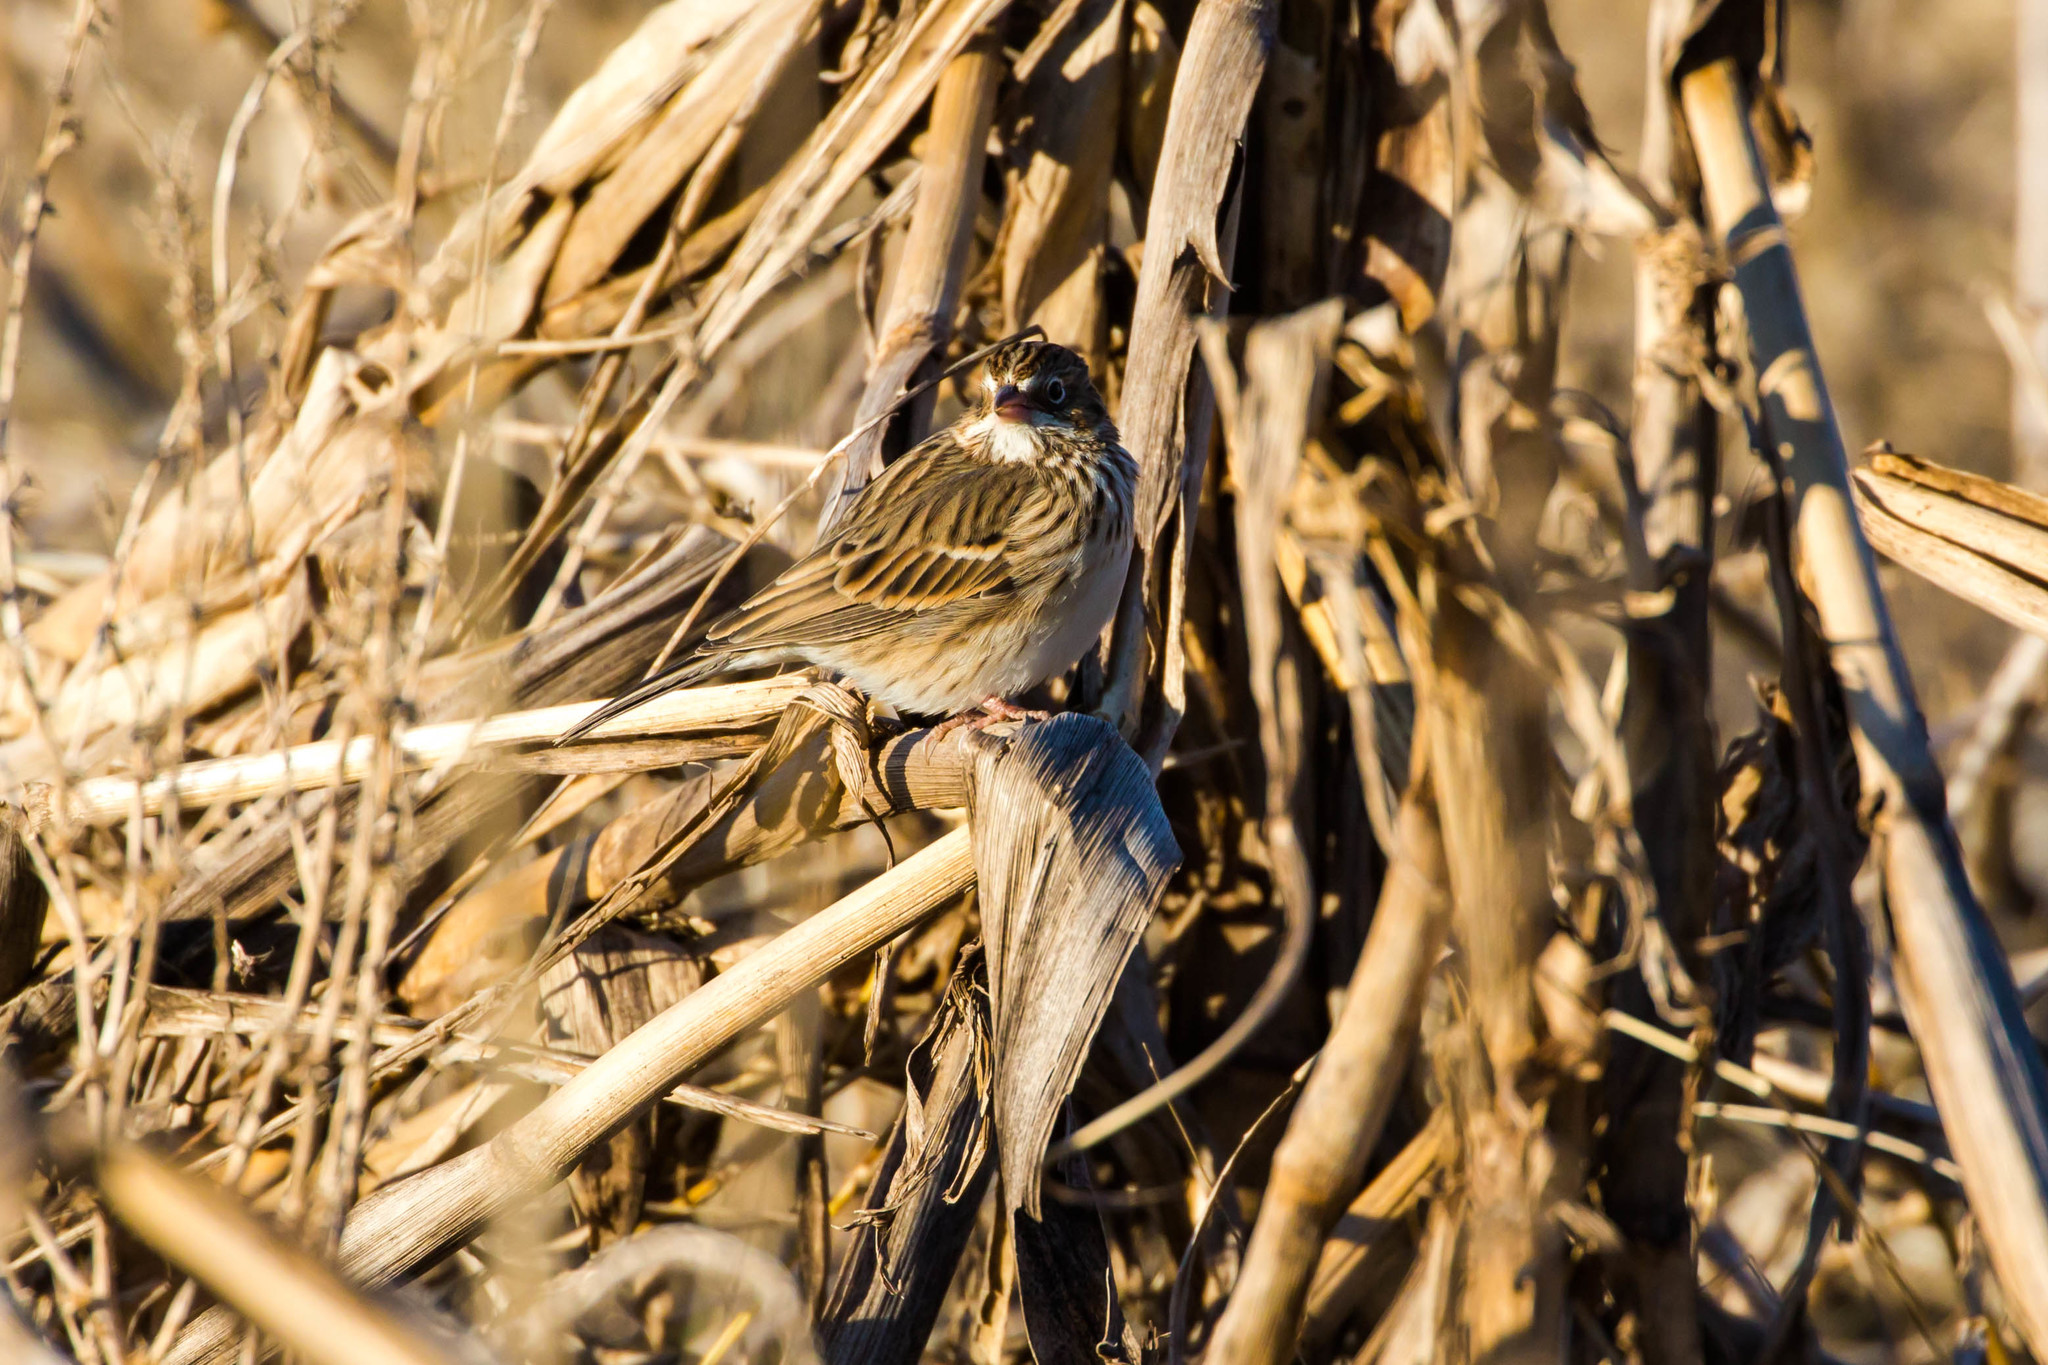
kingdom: Animalia
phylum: Chordata
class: Aves
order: Passeriformes
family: Passerellidae
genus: Pooecetes
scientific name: Pooecetes gramineus
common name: Vesper sparrow
